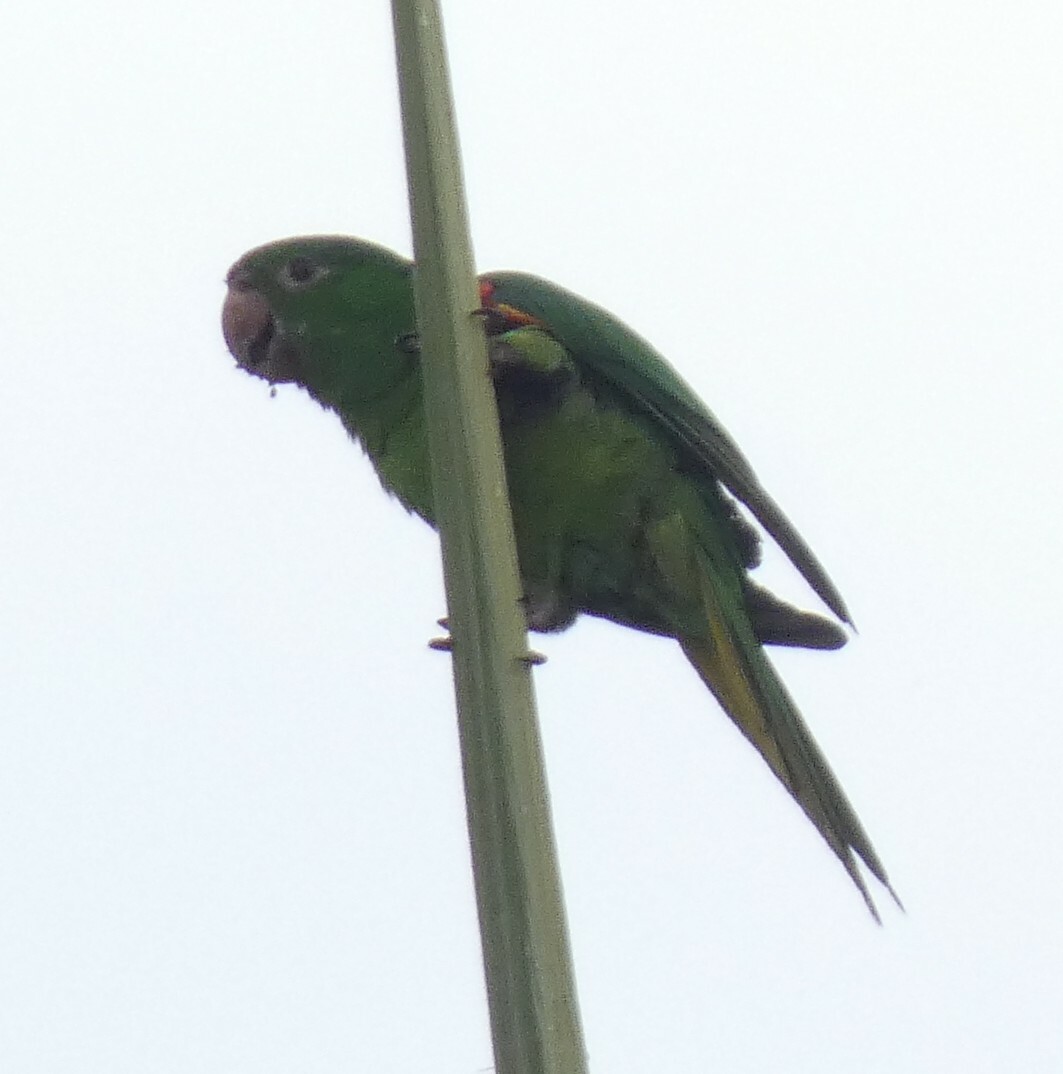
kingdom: Animalia
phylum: Chordata
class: Aves
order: Psittaciformes
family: Psittacidae
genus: Aratinga
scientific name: Aratinga leucophthalma
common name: White-eyed parakeet
